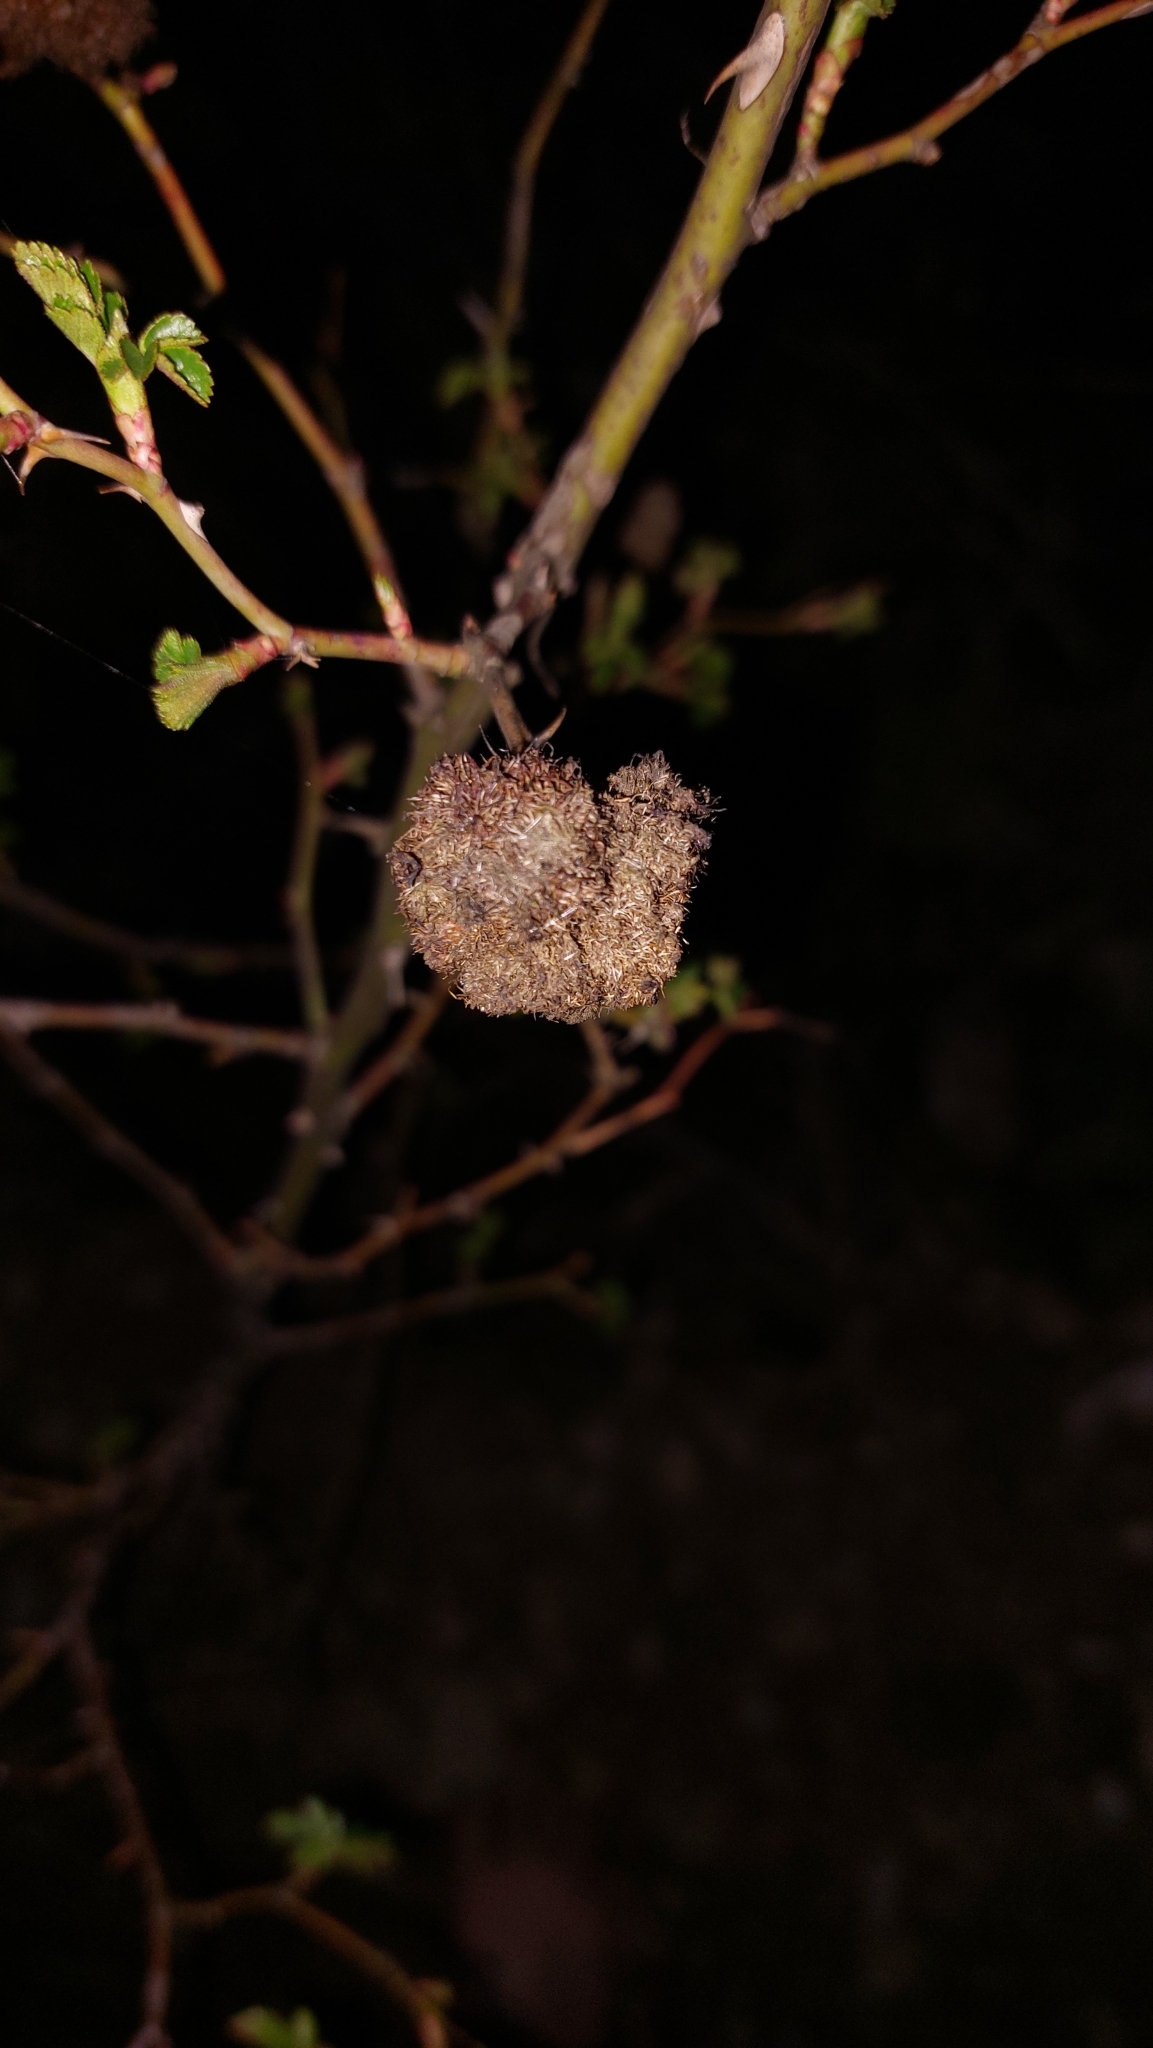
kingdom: Animalia
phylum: Arthropoda
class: Insecta
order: Hymenoptera
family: Cynipidae
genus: Diplolepis
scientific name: Diplolepis rosae
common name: Bedeguar gall
